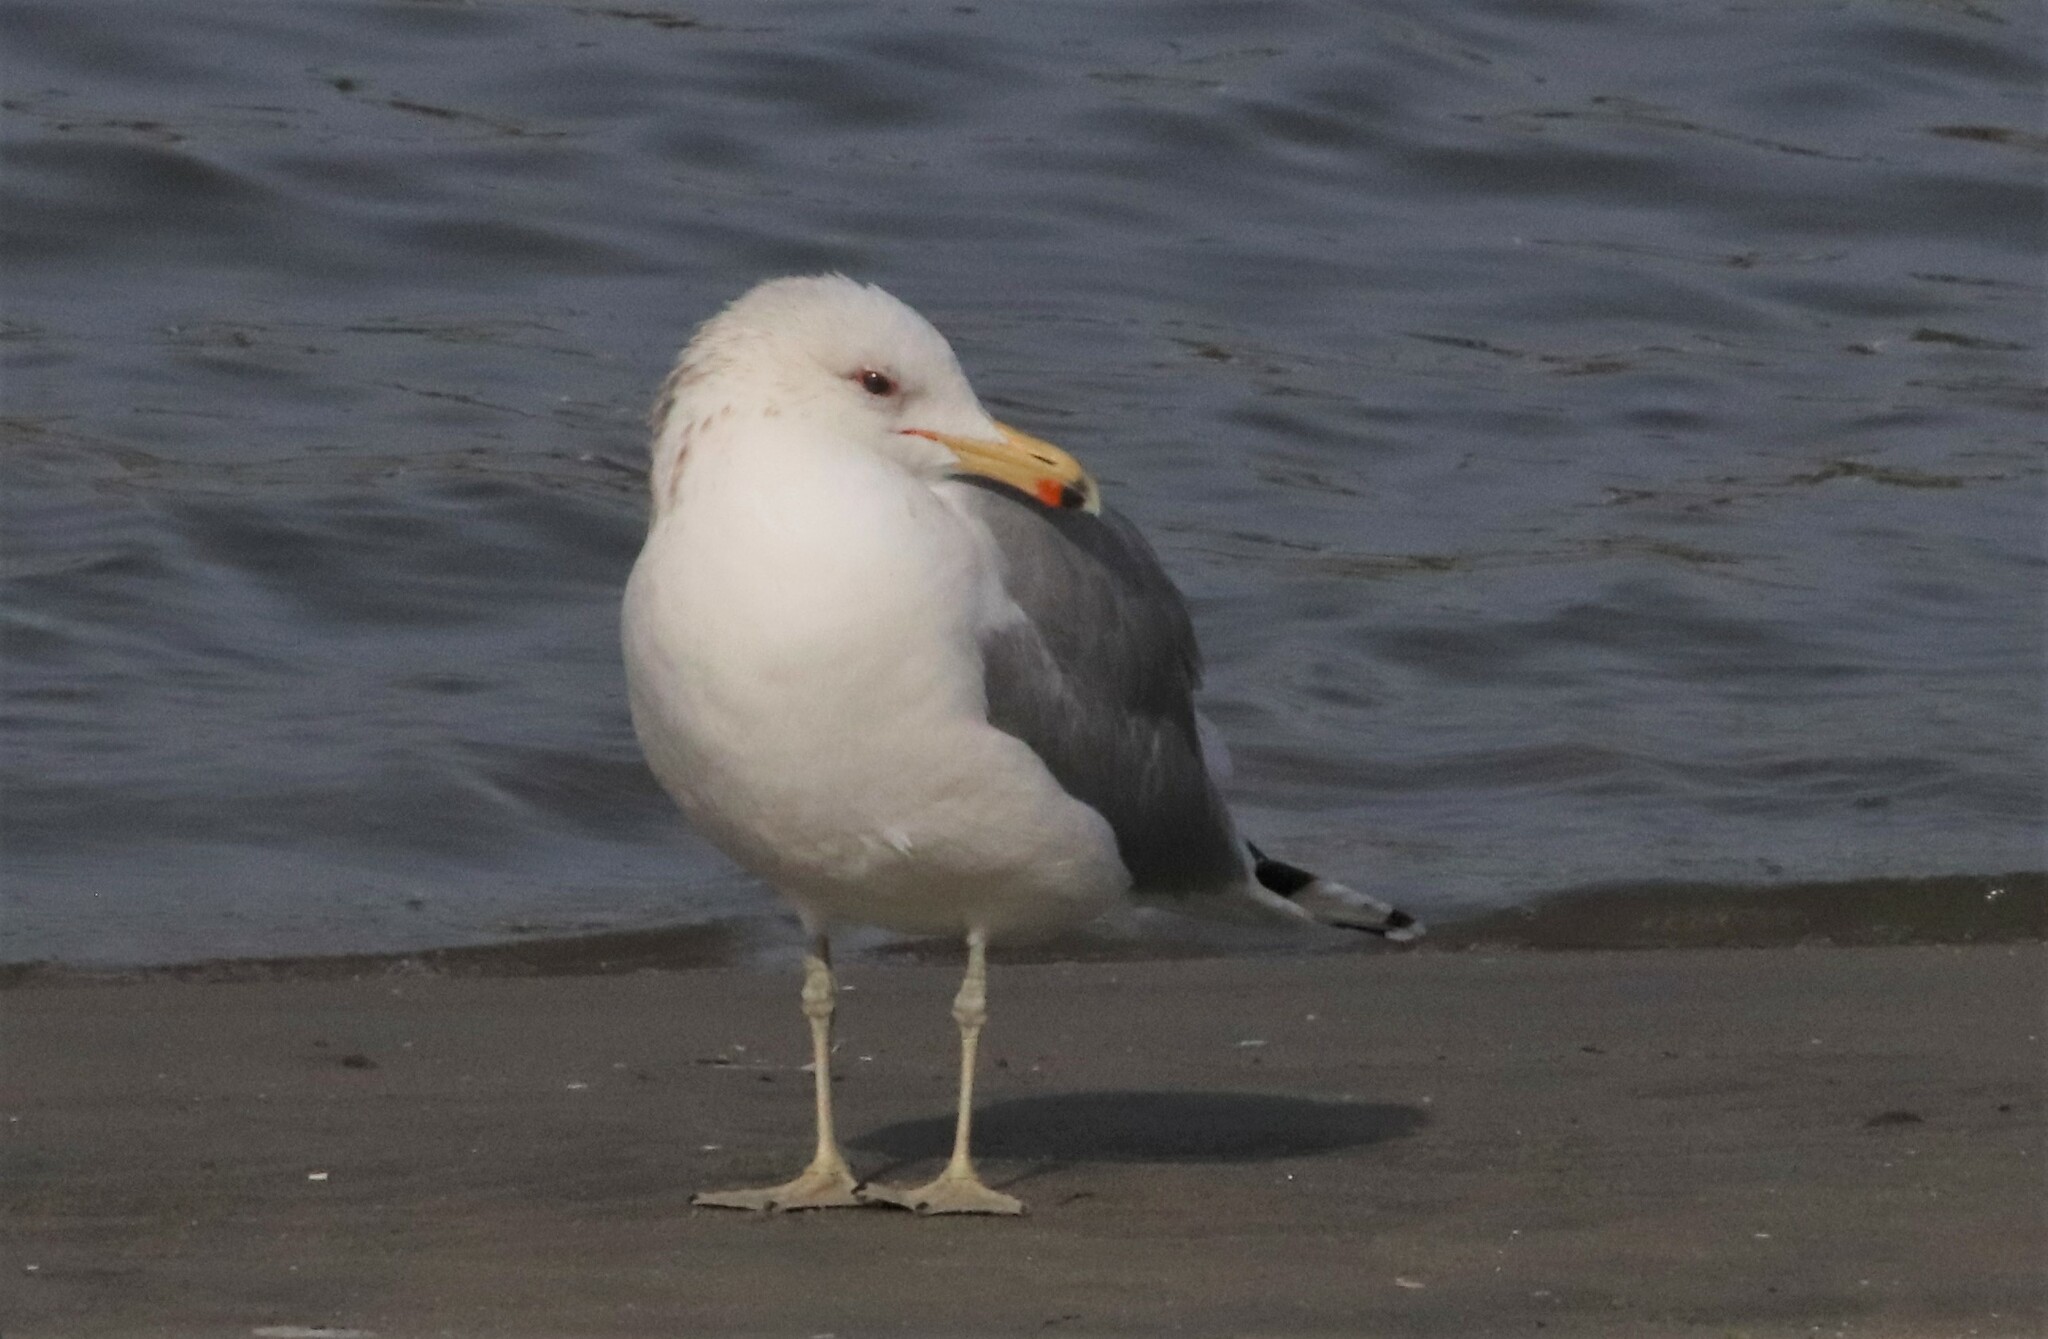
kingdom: Animalia
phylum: Chordata
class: Aves
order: Charadriiformes
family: Laridae
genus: Larus
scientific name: Larus californicus
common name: California gull
